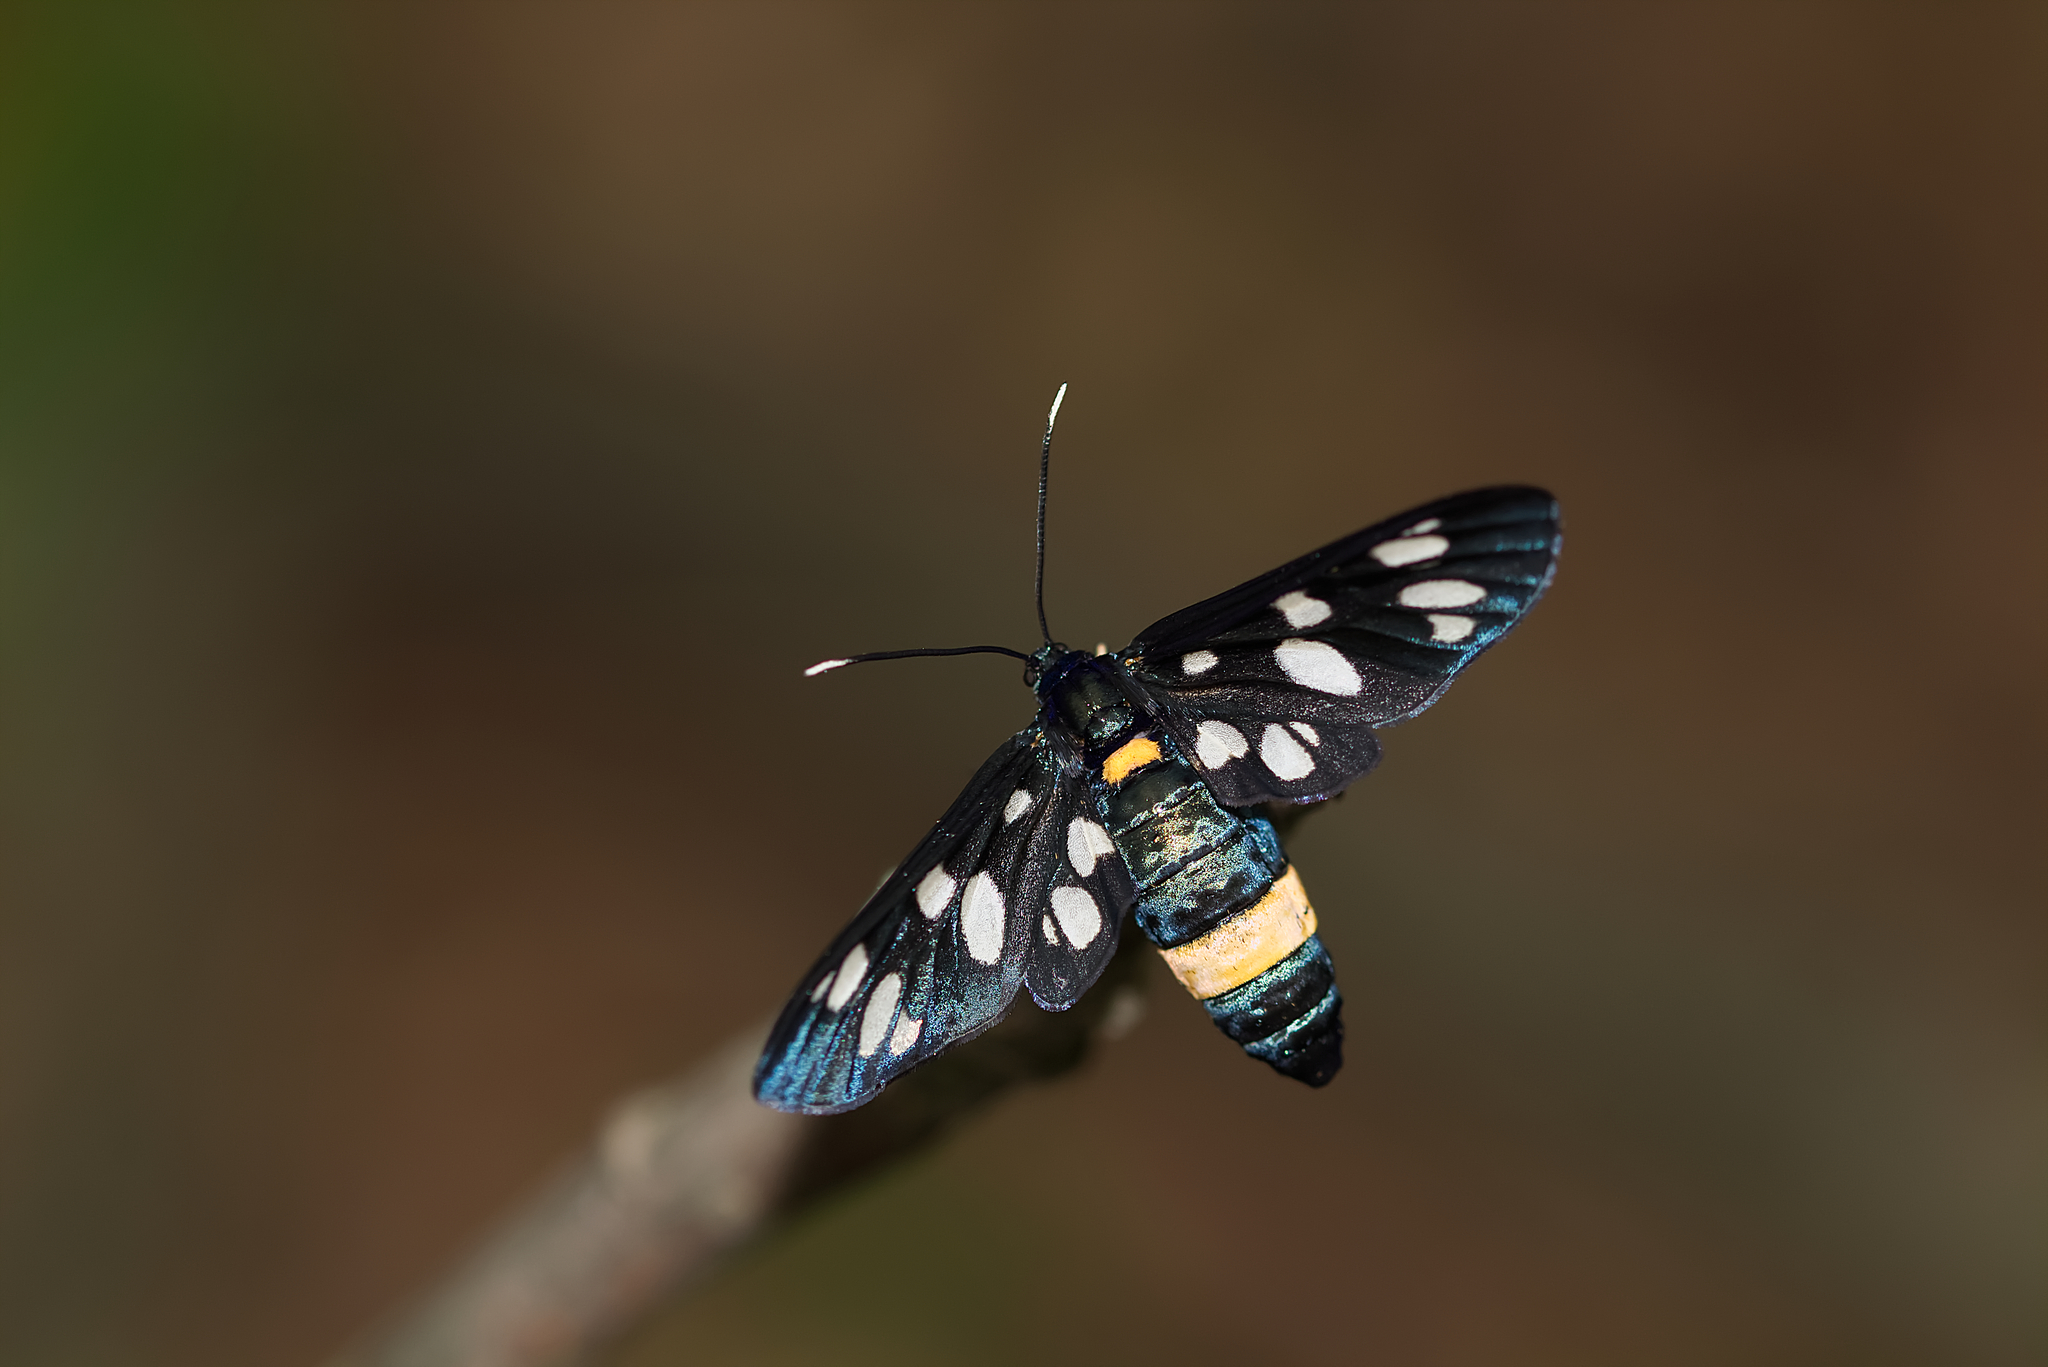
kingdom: Animalia
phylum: Arthropoda
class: Insecta
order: Lepidoptera
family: Erebidae
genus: Amata
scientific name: Amata phegea
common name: Nine-spotted
